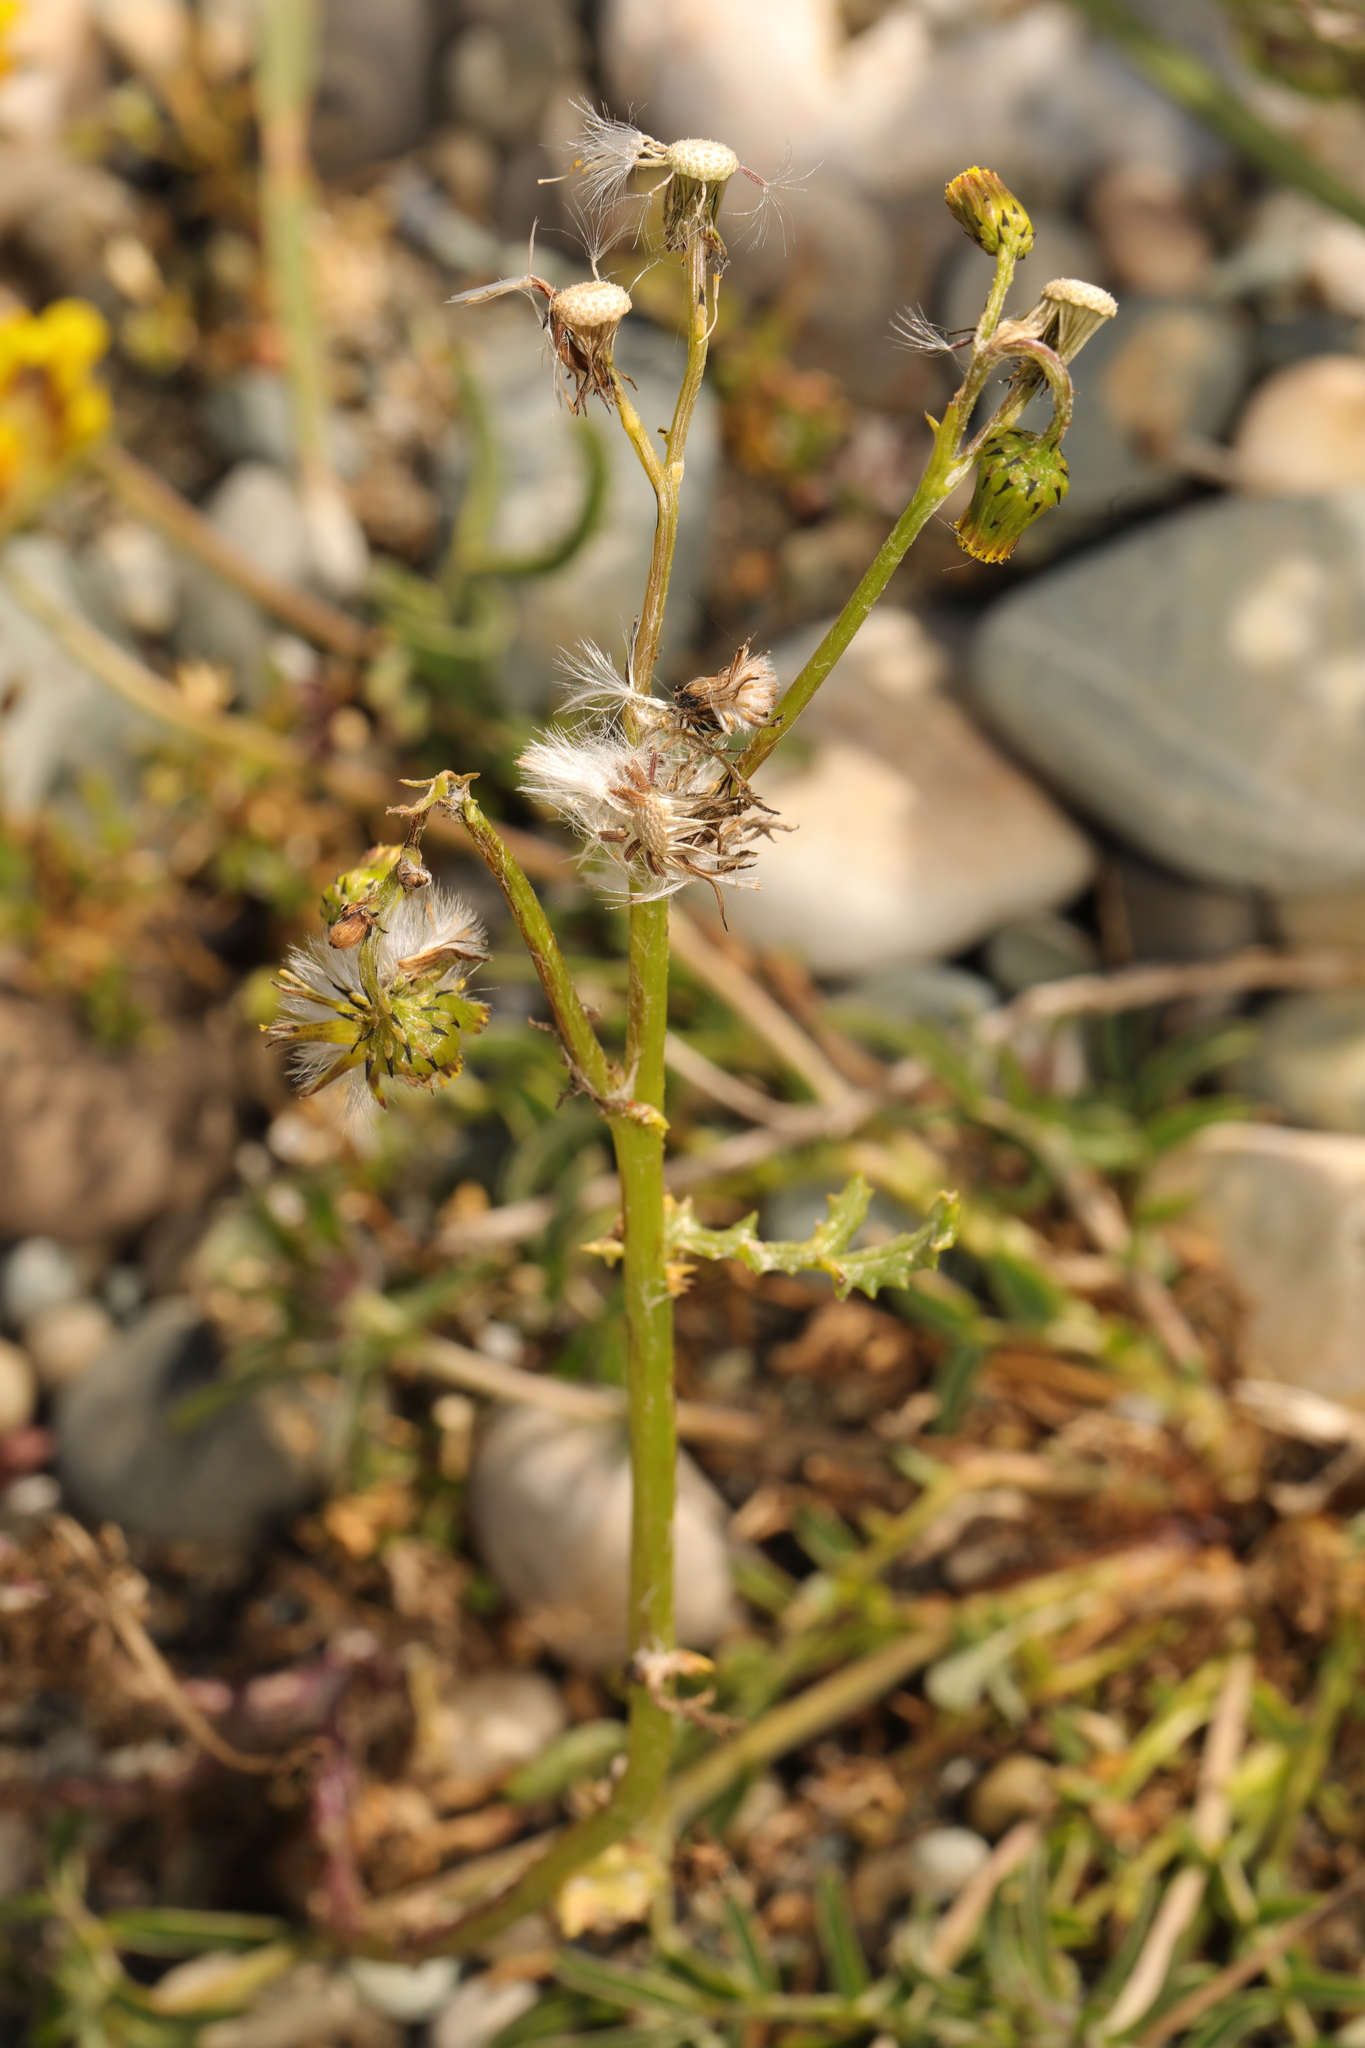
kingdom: Plantae
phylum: Tracheophyta
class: Magnoliopsida
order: Asterales
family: Asteraceae
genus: Senecio
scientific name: Senecio vulgaris
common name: Old-man-in-the-spring
